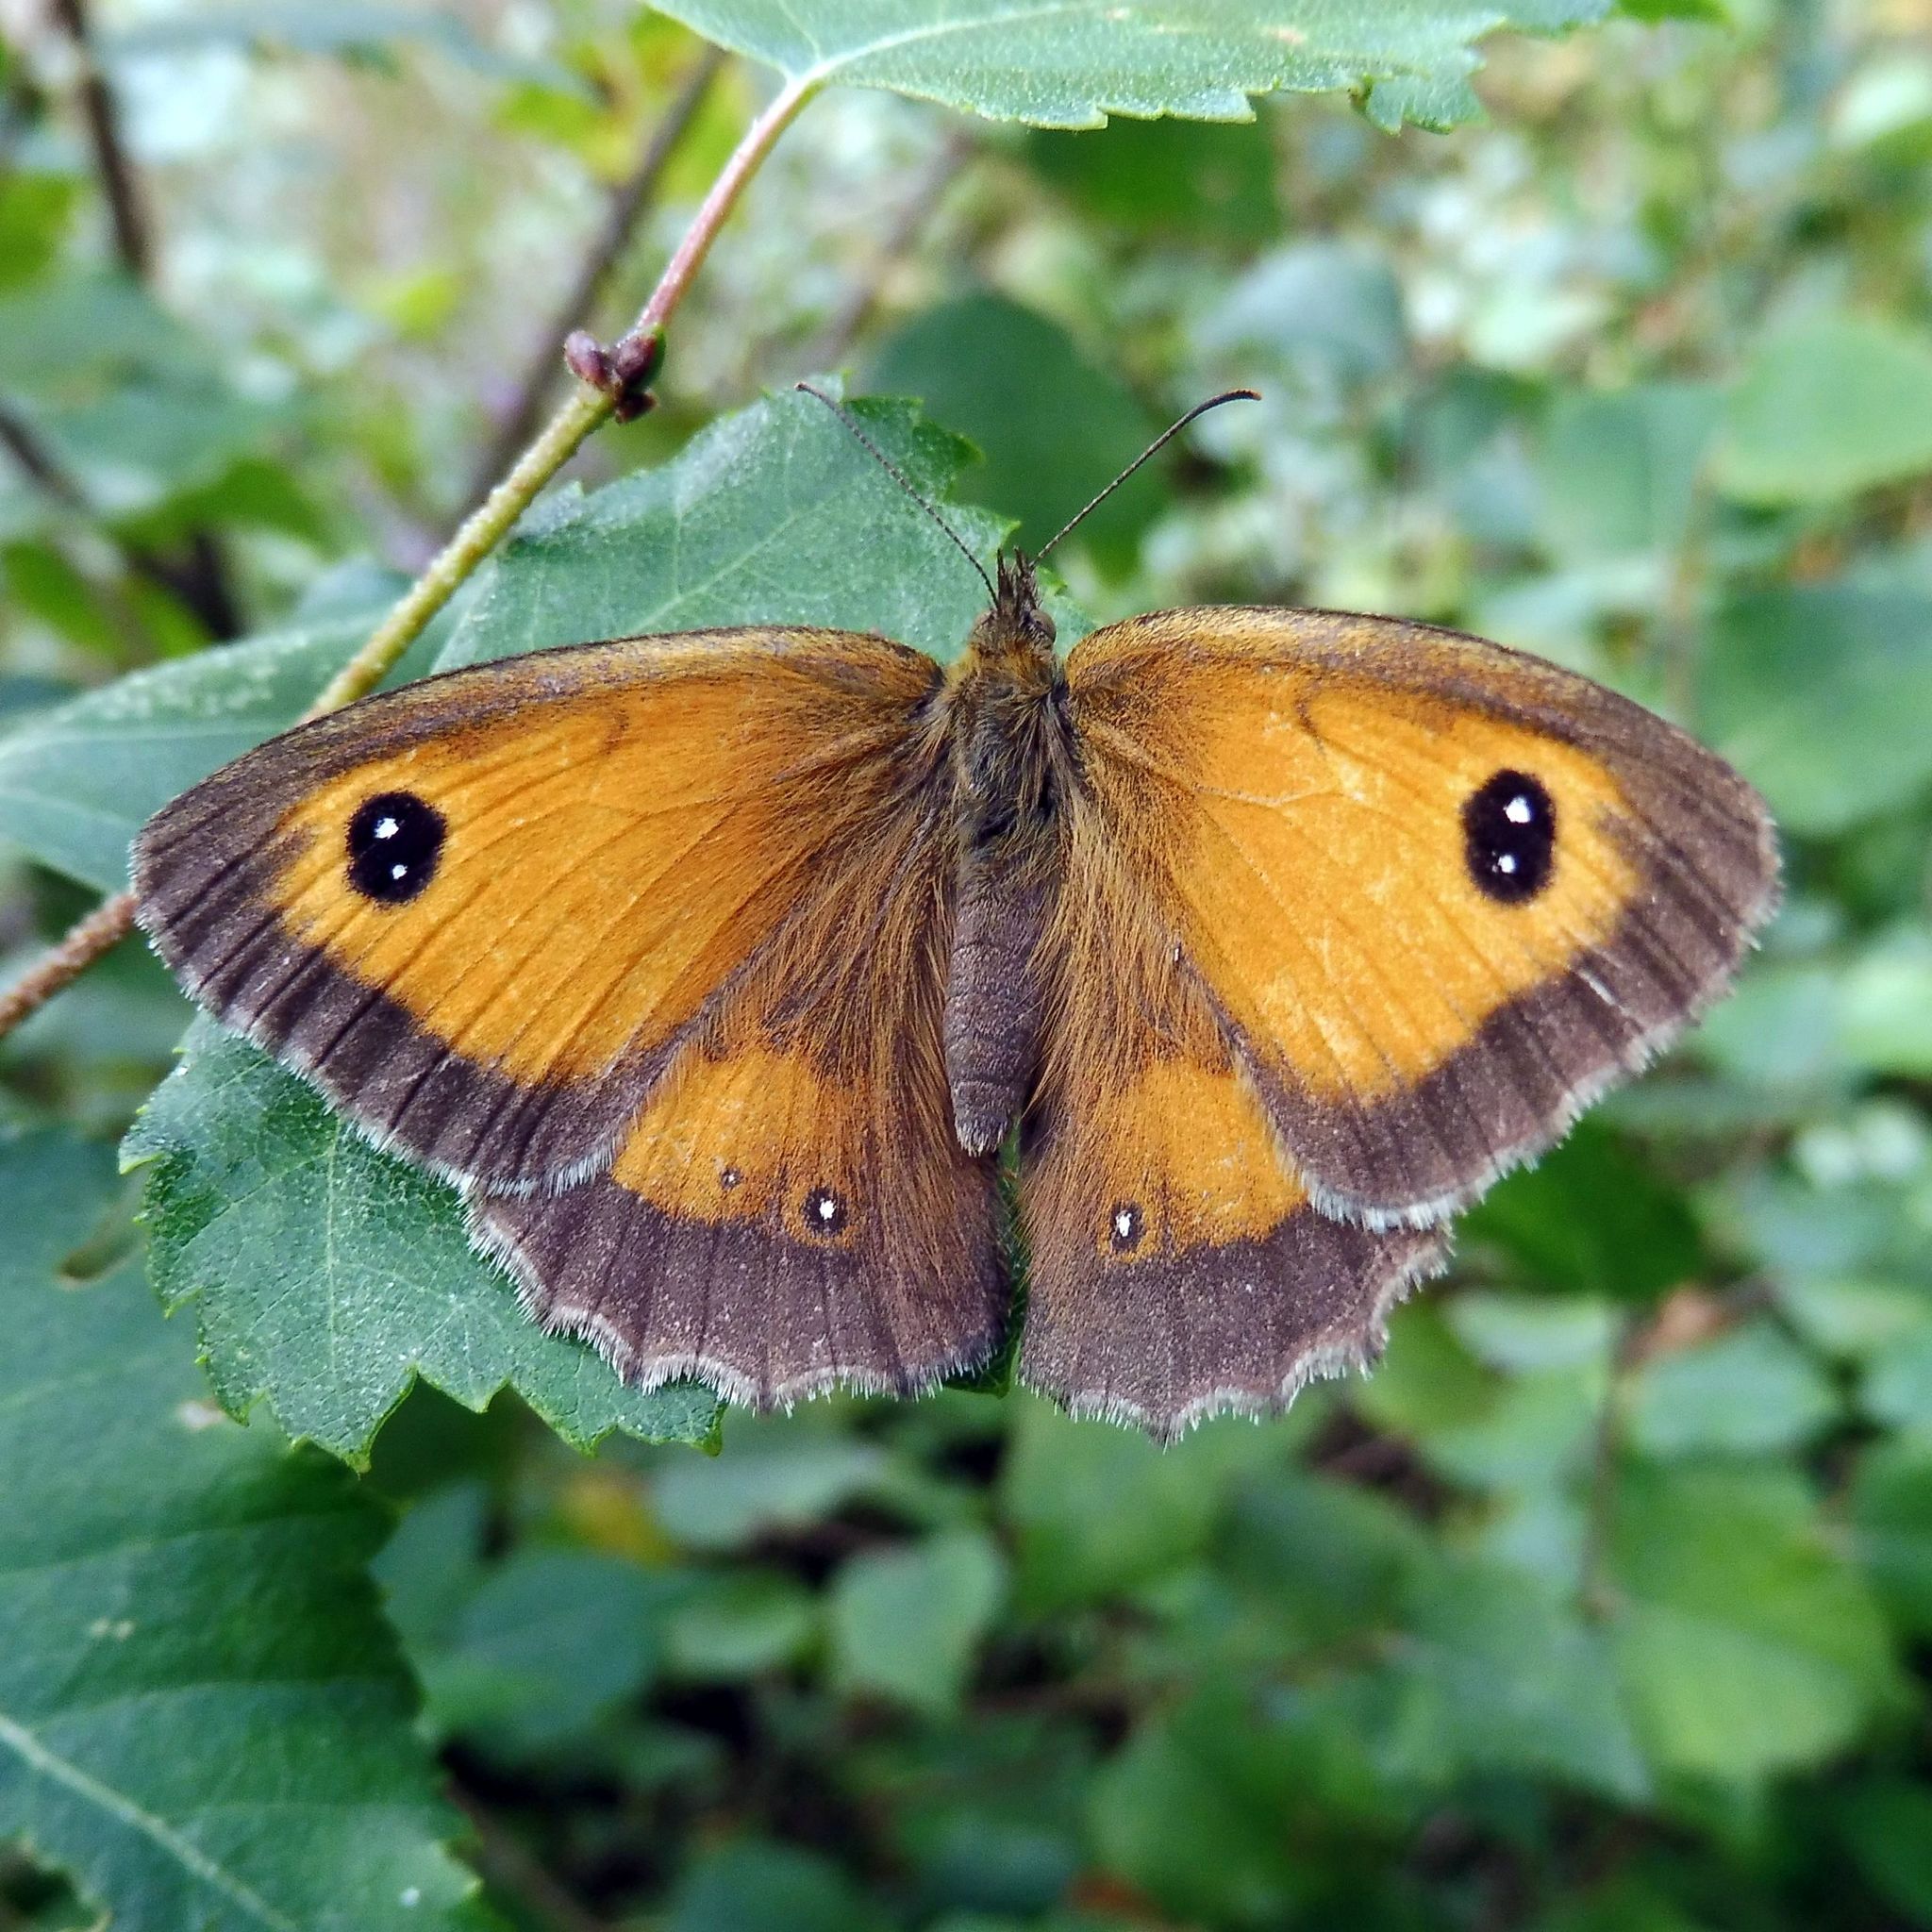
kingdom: Animalia
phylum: Arthropoda
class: Insecta
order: Lepidoptera
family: Nymphalidae
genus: Pyronia
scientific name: Pyronia tithonus
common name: Gatekeeper
